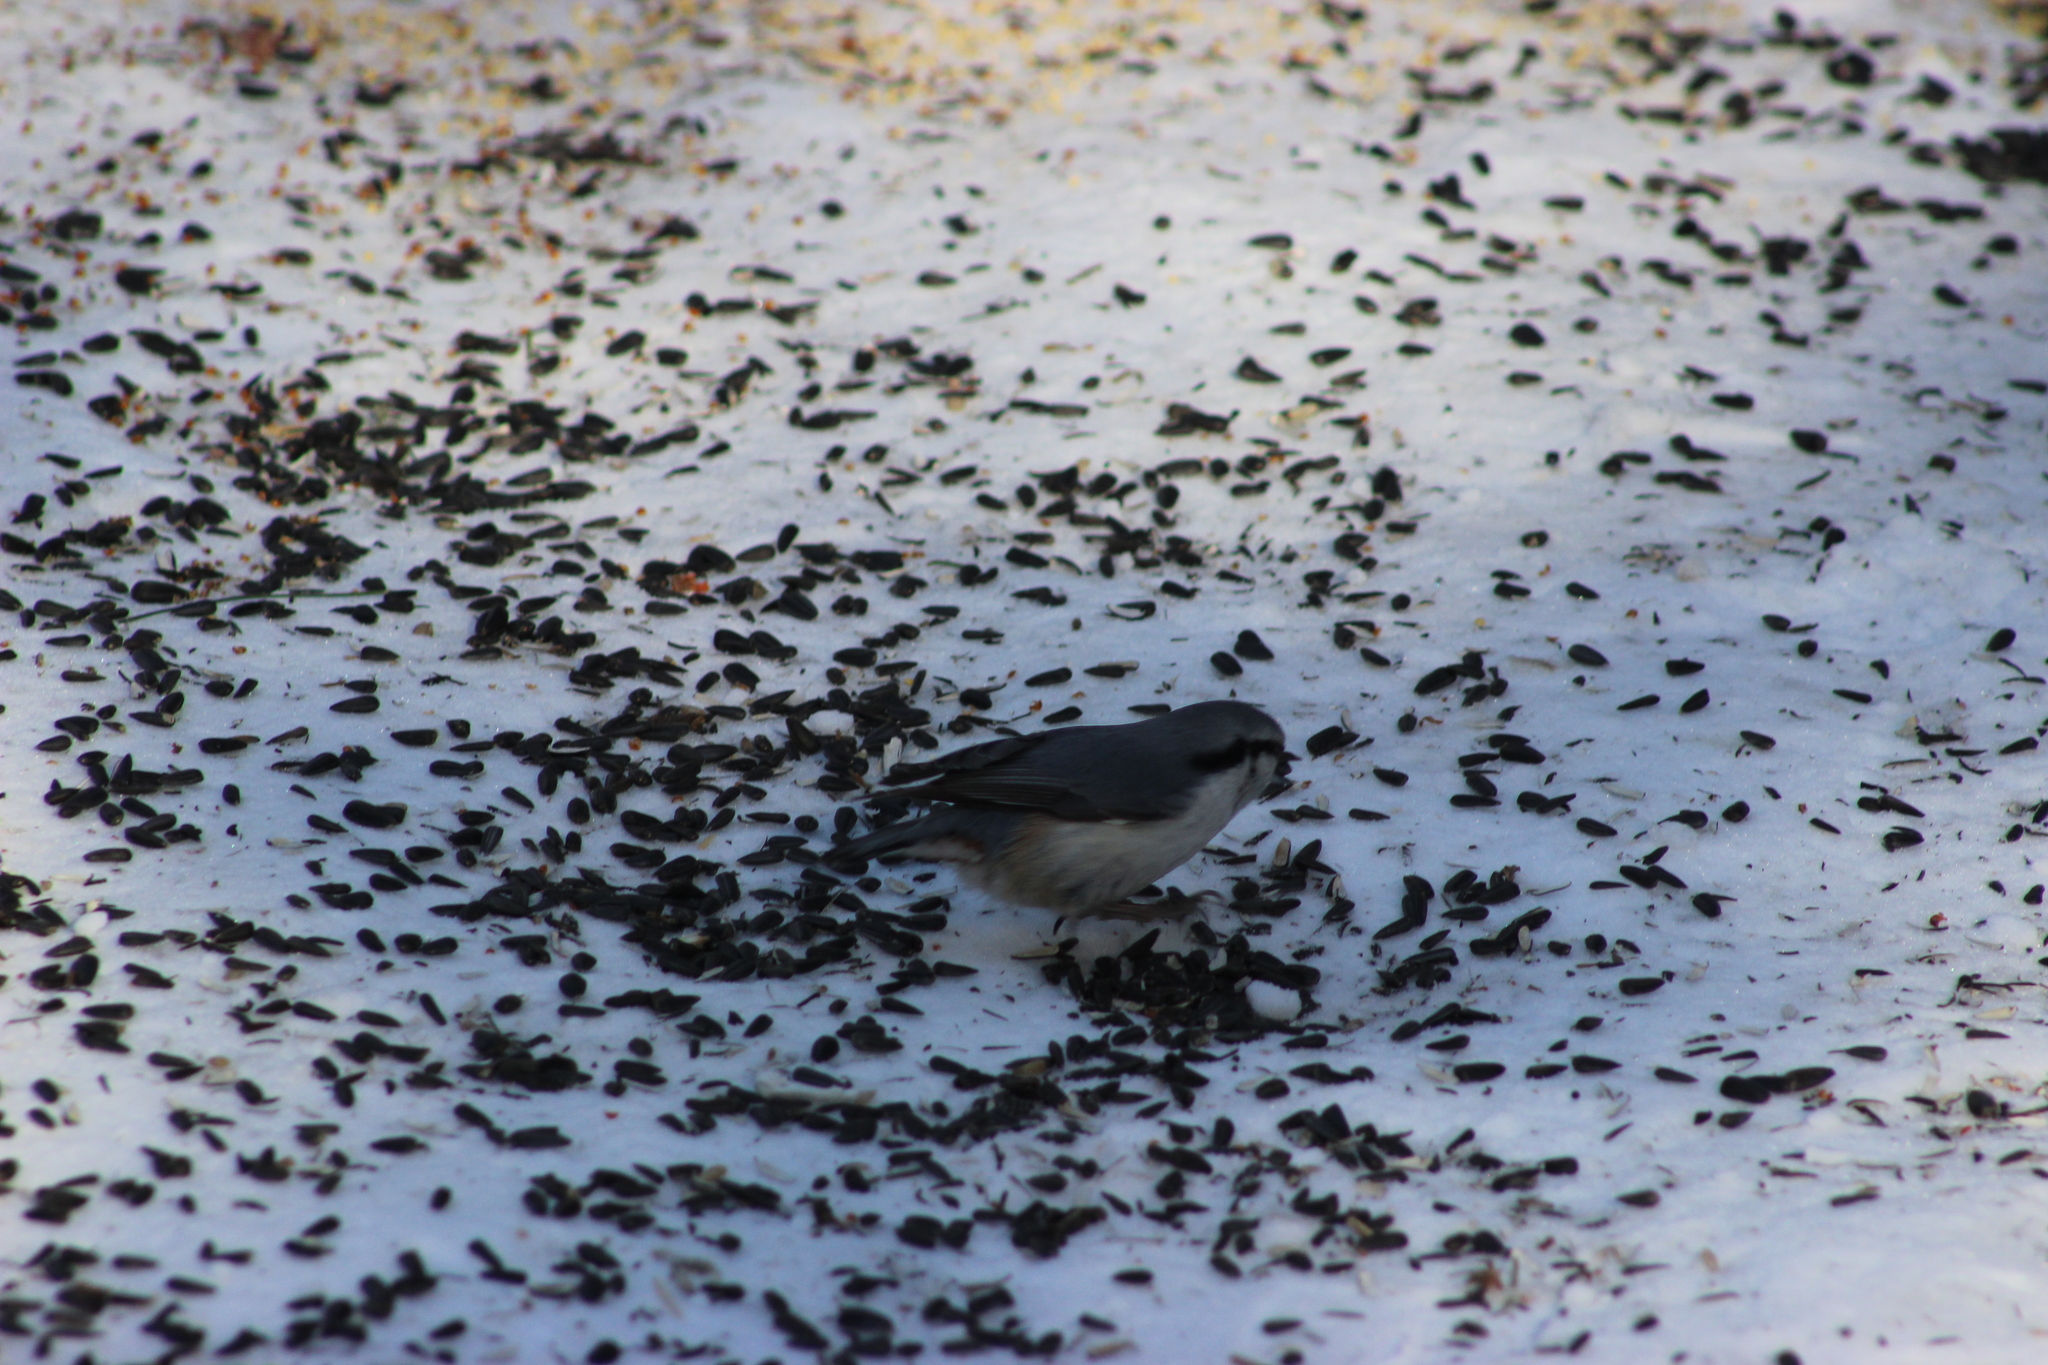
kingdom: Animalia
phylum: Chordata
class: Aves
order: Passeriformes
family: Sittidae
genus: Sitta
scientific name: Sitta europaea
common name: Eurasian nuthatch
